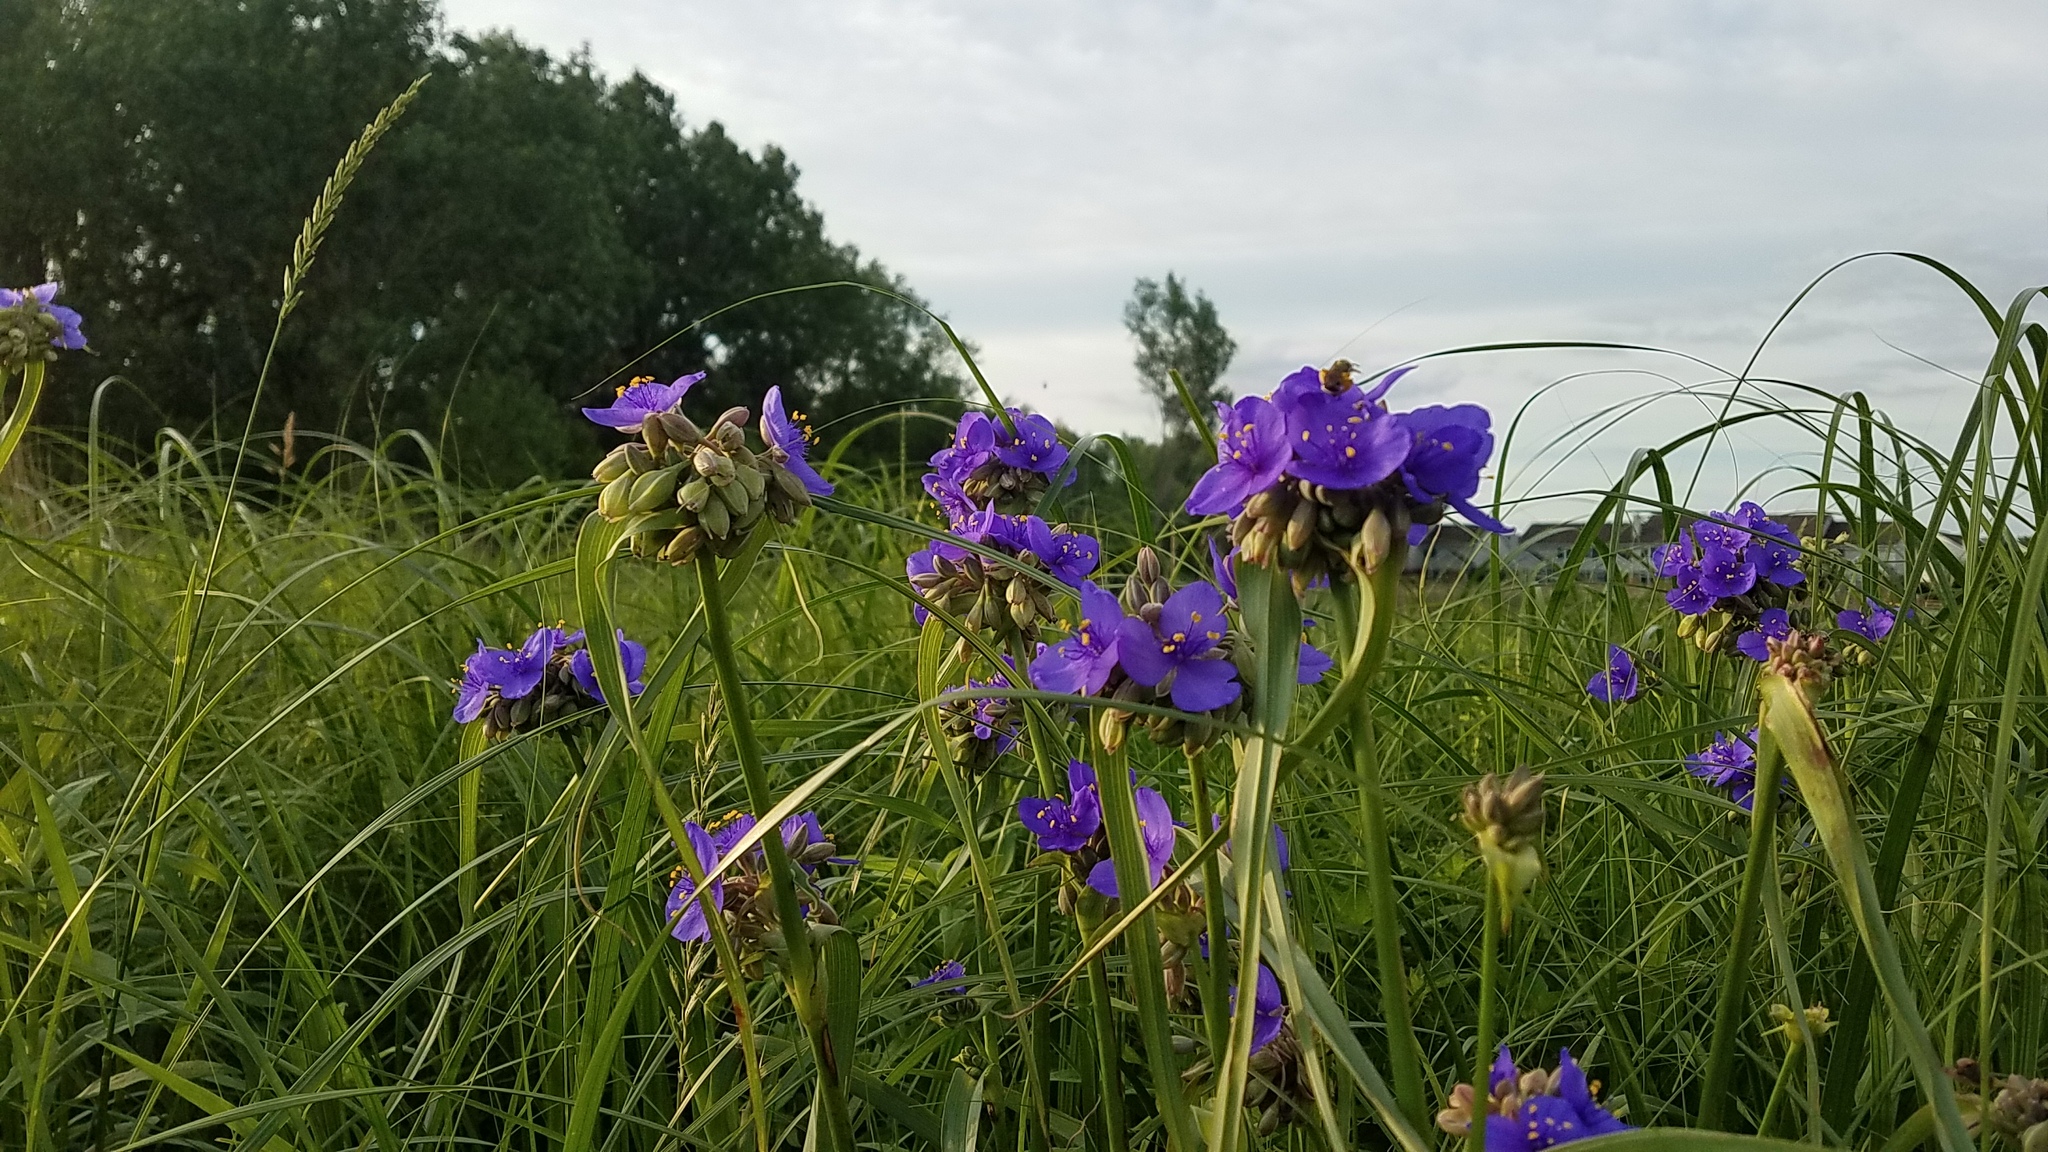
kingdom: Plantae
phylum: Tracheophyta
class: Liliopsida
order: Commelinales
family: Commelinaceae
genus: Tradescantia
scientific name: Tradescantia ohiensis
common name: Ohio spiderwort
